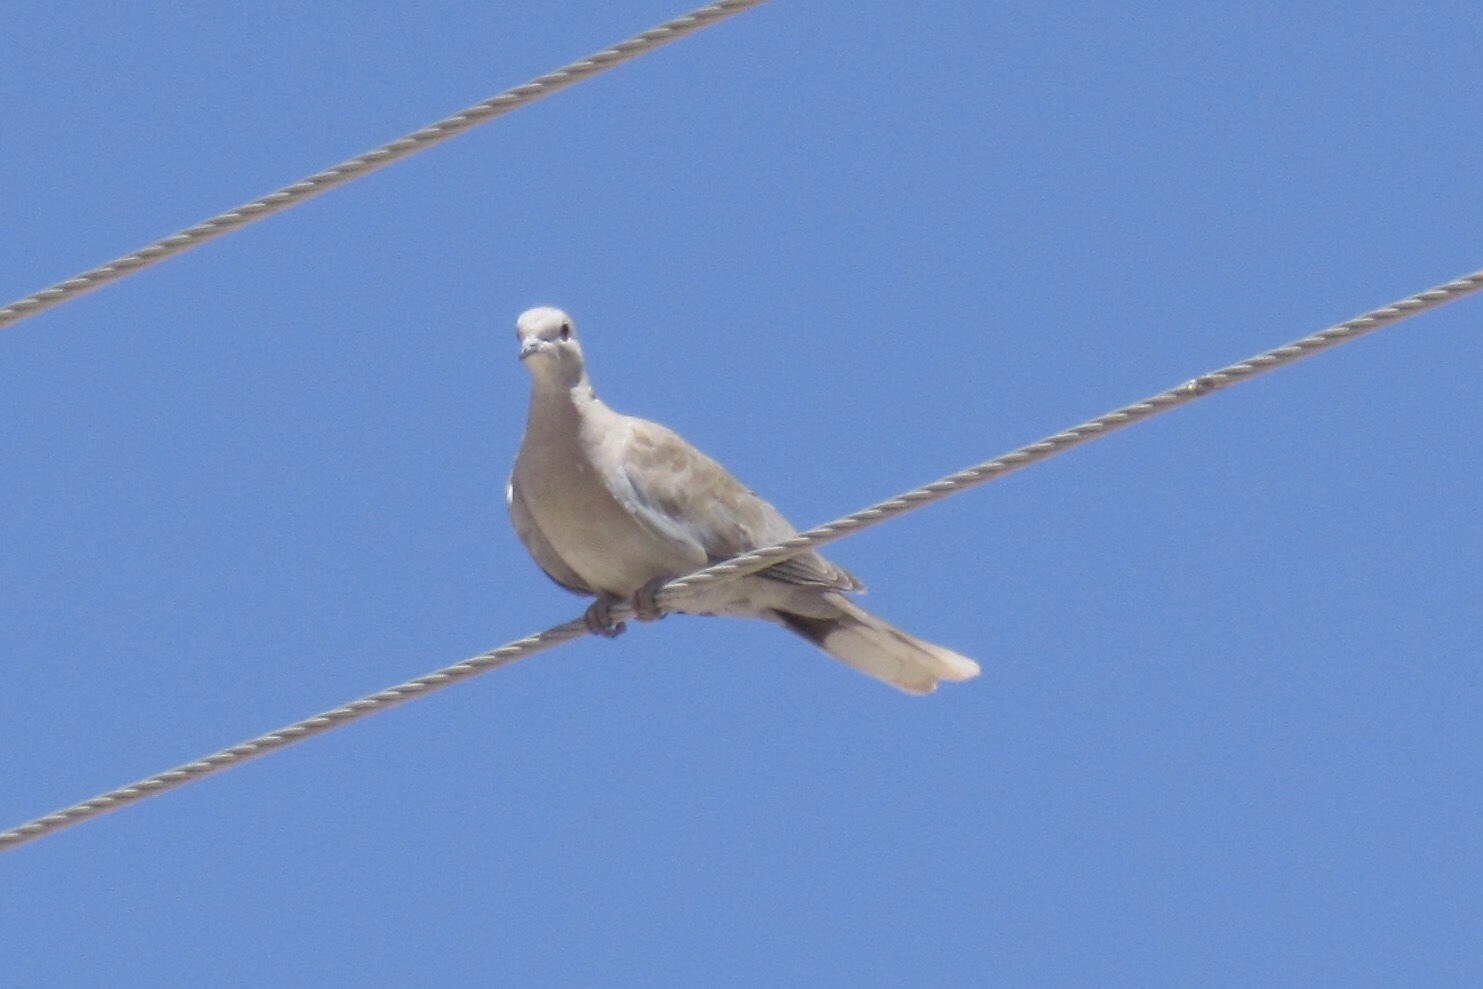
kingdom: Animalia
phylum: Chordata
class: Aves
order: Columbiformes
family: Columbidae
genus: Streptopelia
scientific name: Streptopelia decaocto
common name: Eurasian collared dove
